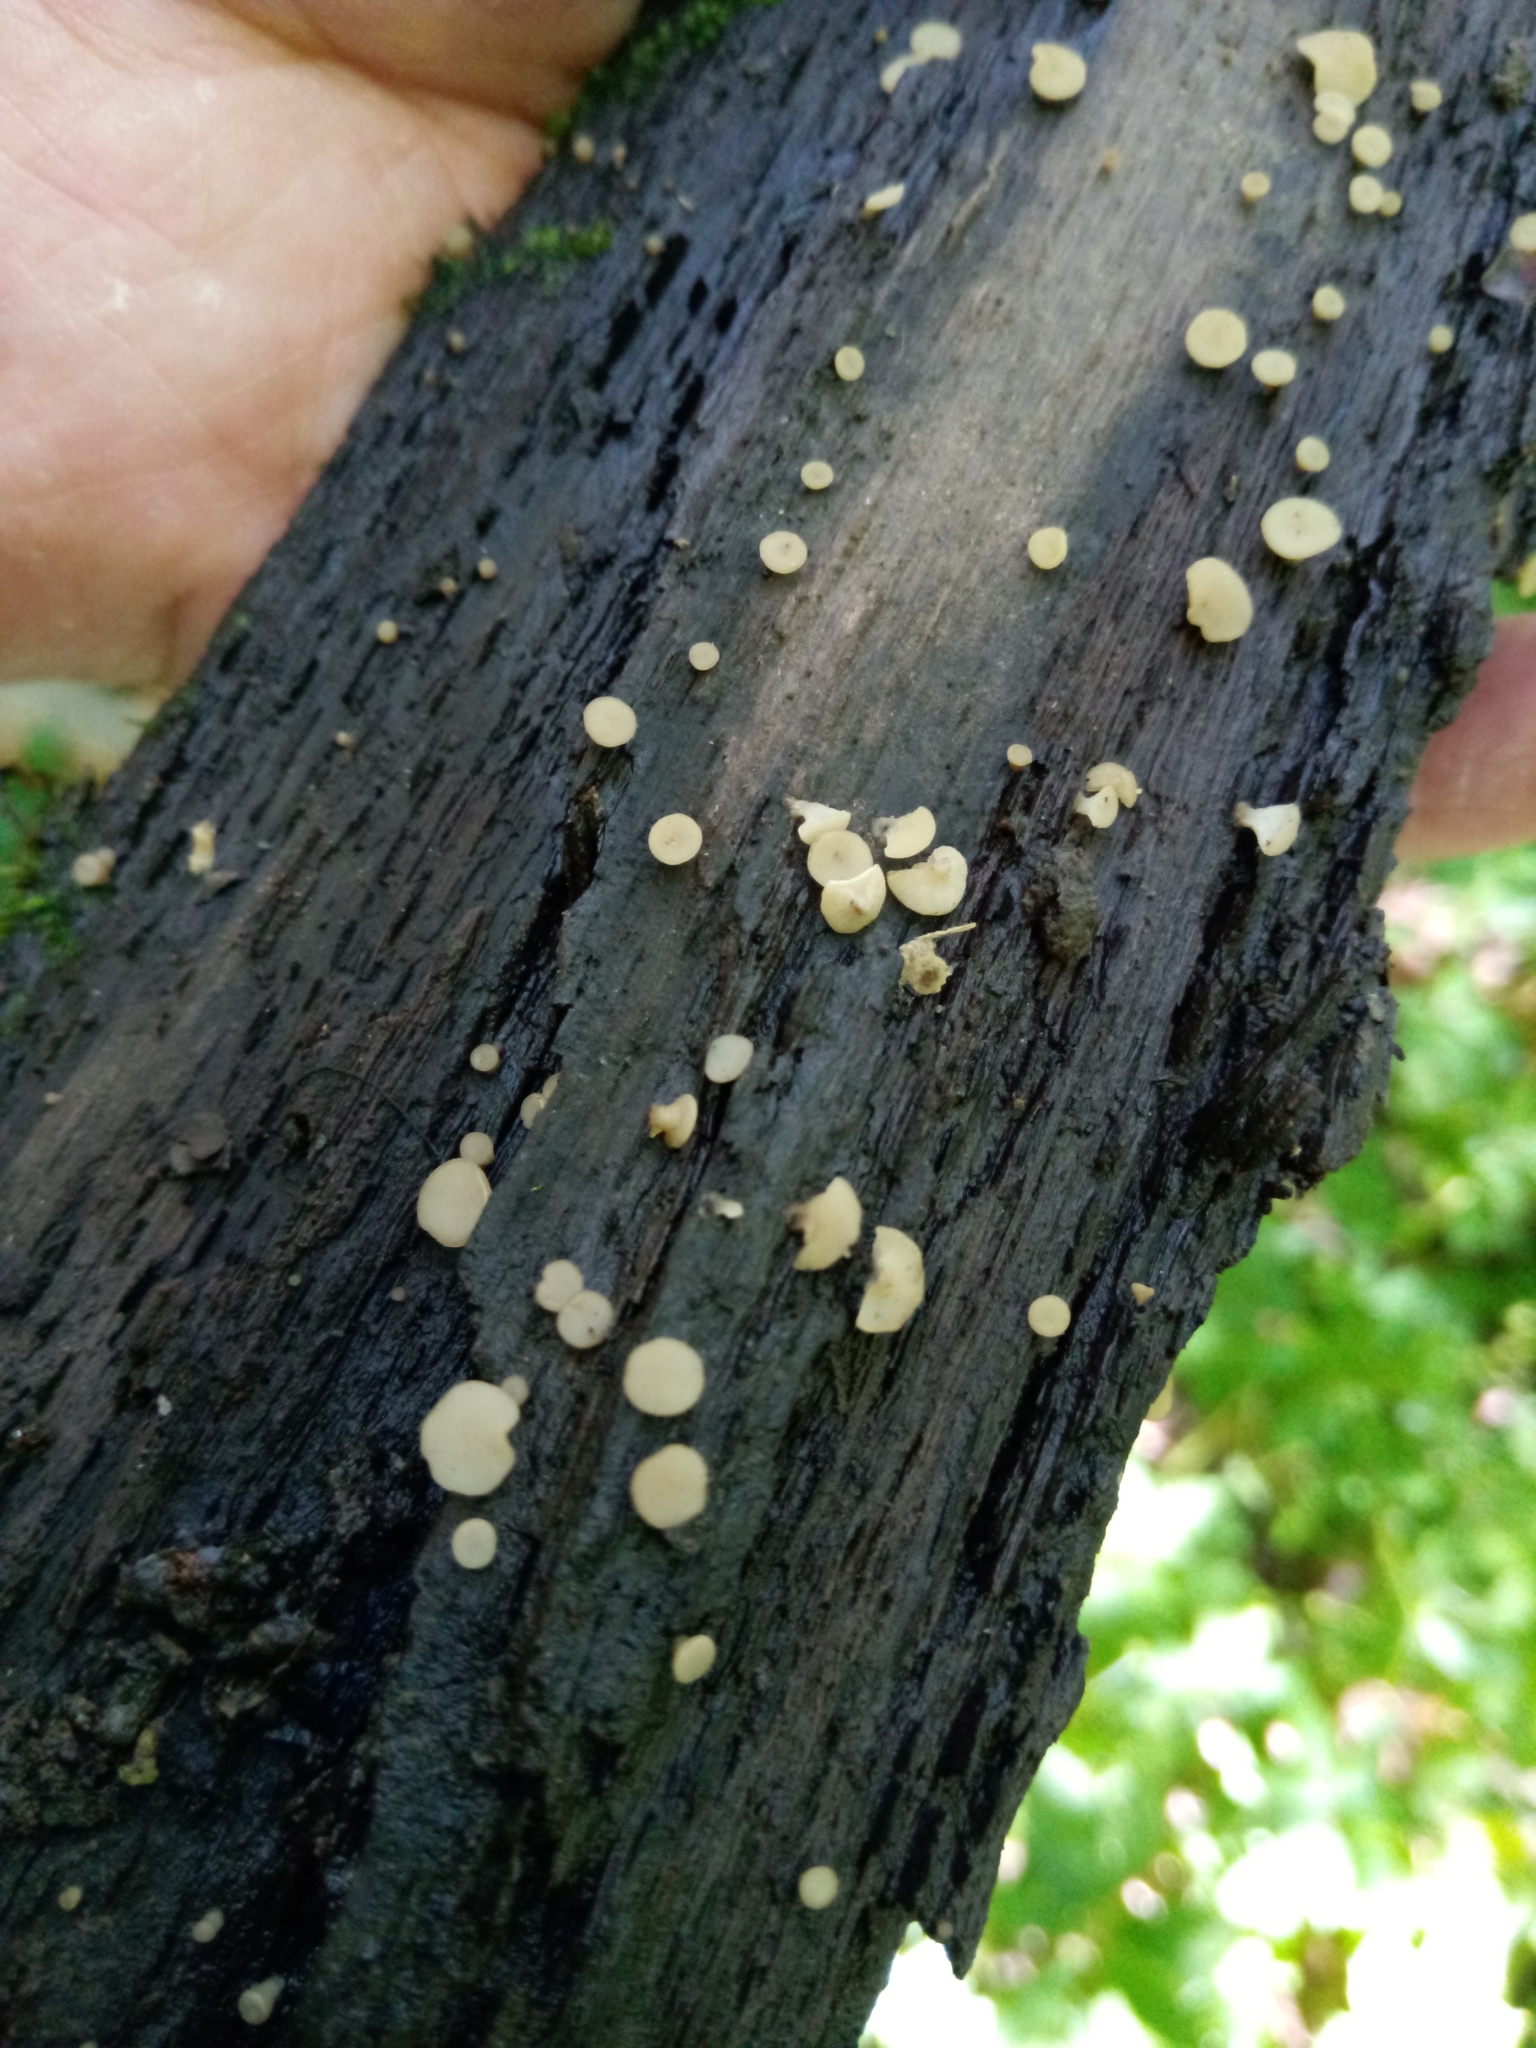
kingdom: Fungi
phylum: Ascomycota
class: Leotiomycetes
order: Helotiales
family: Helotiaceae
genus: Tatraea
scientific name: Tatraea macrospora
